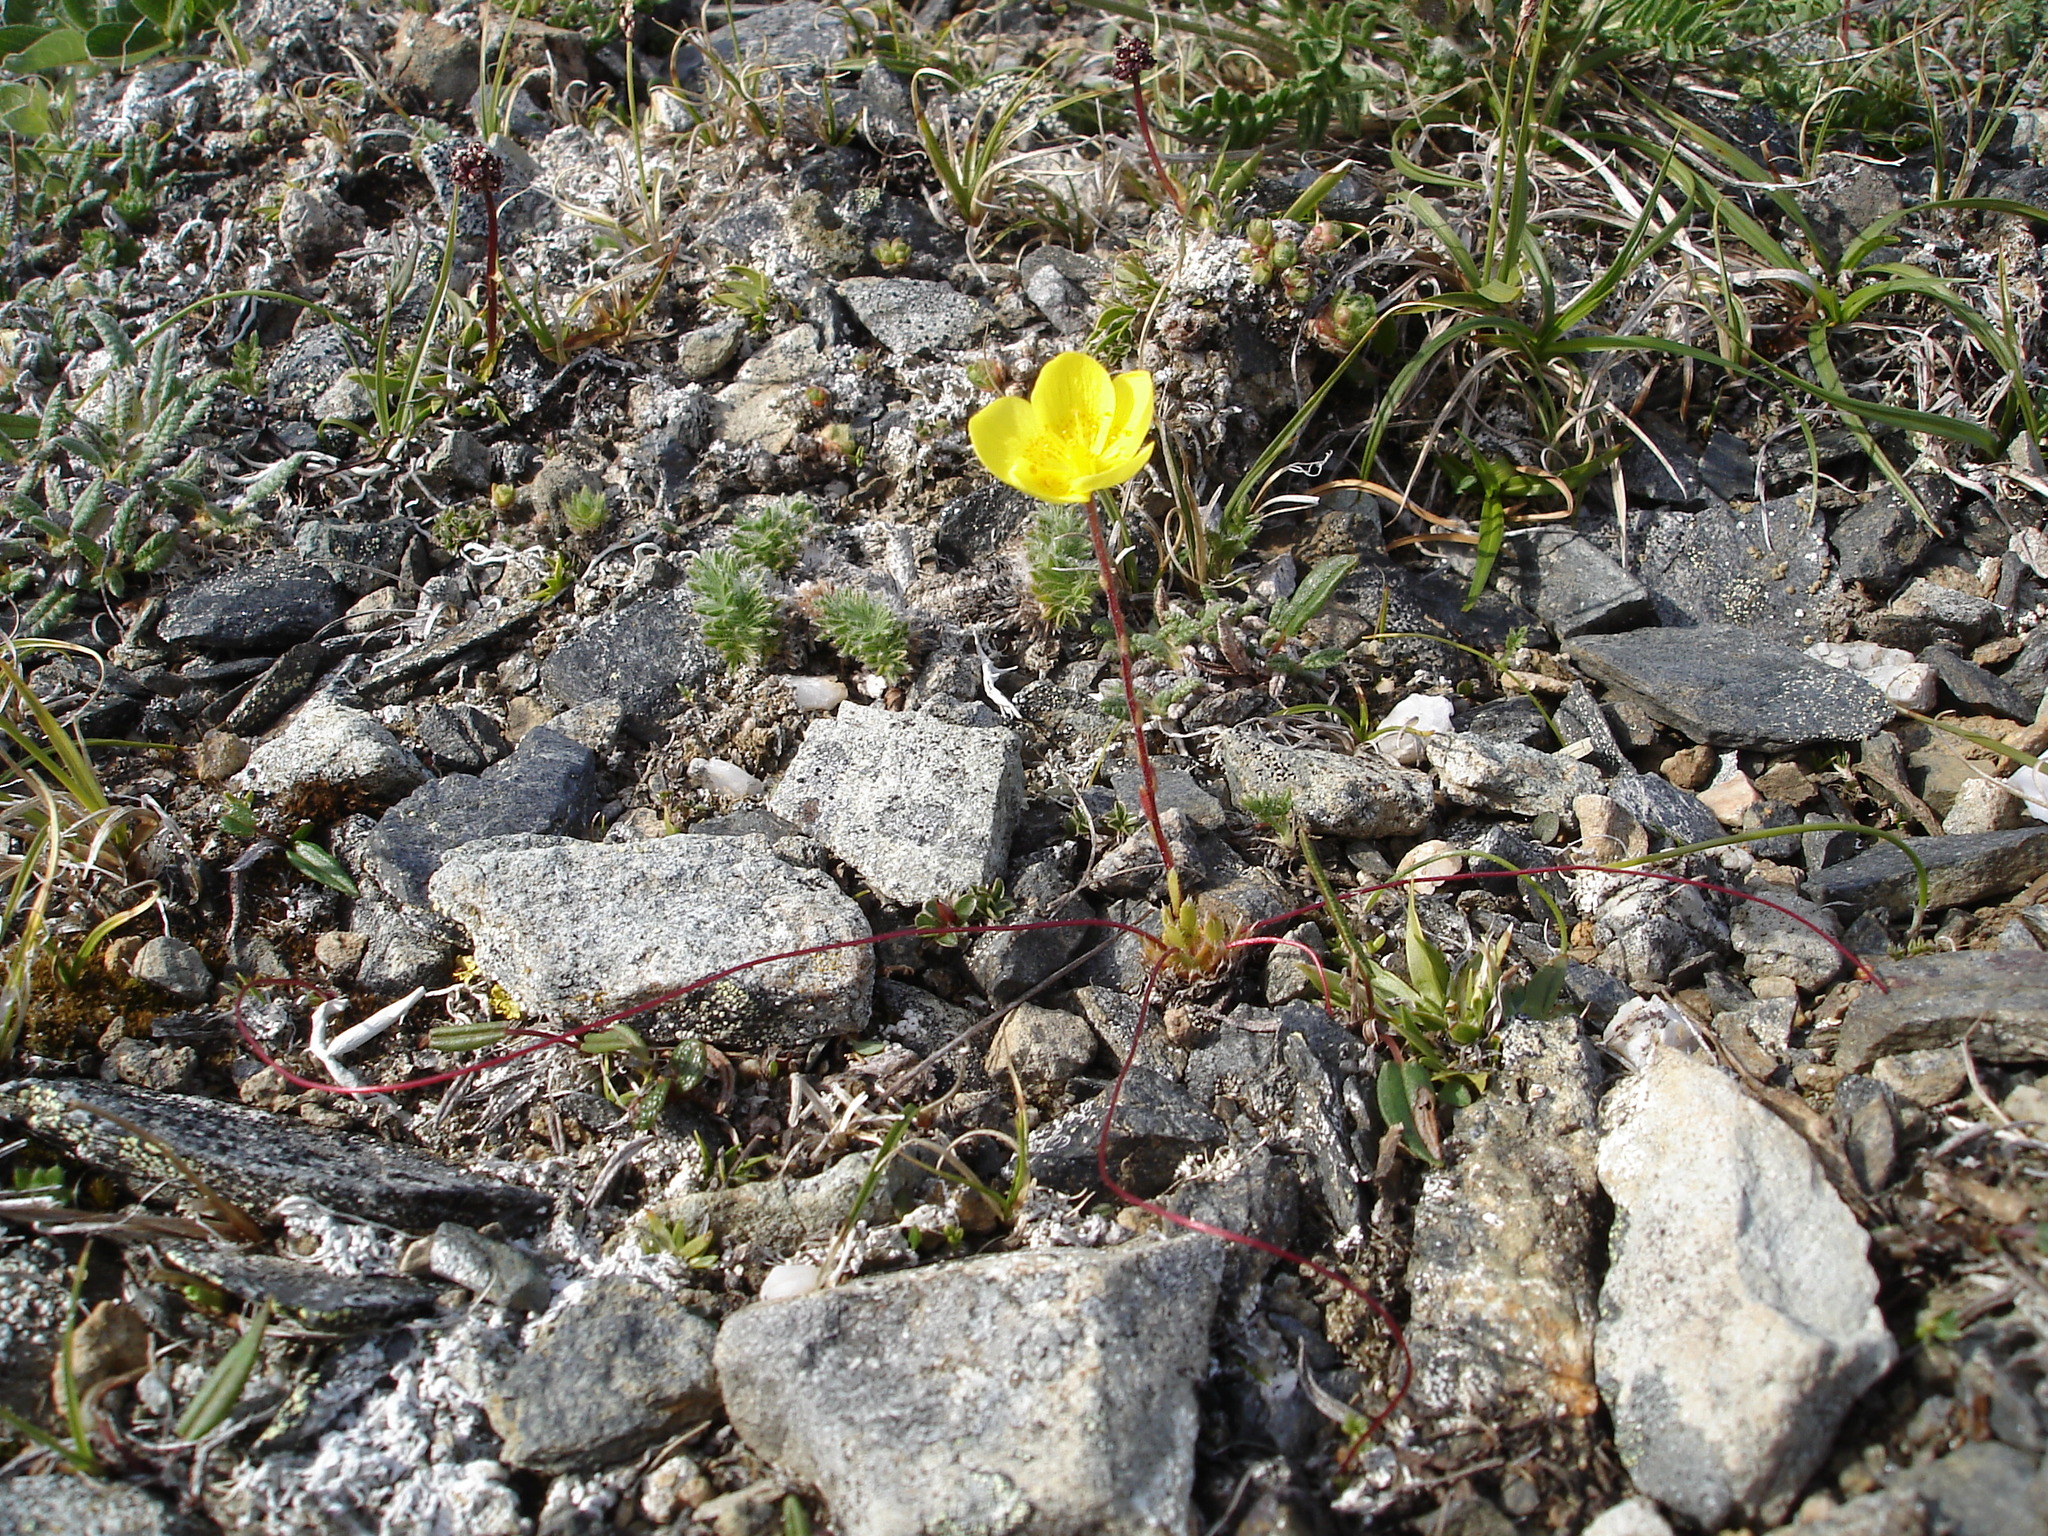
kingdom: Plantae
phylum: Tracheophyta
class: Magnoliopsida
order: Saxifragales
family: Saxifragaceae
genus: Saxifraga
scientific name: Saxifraga flagellaris
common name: Spider saxifrage
